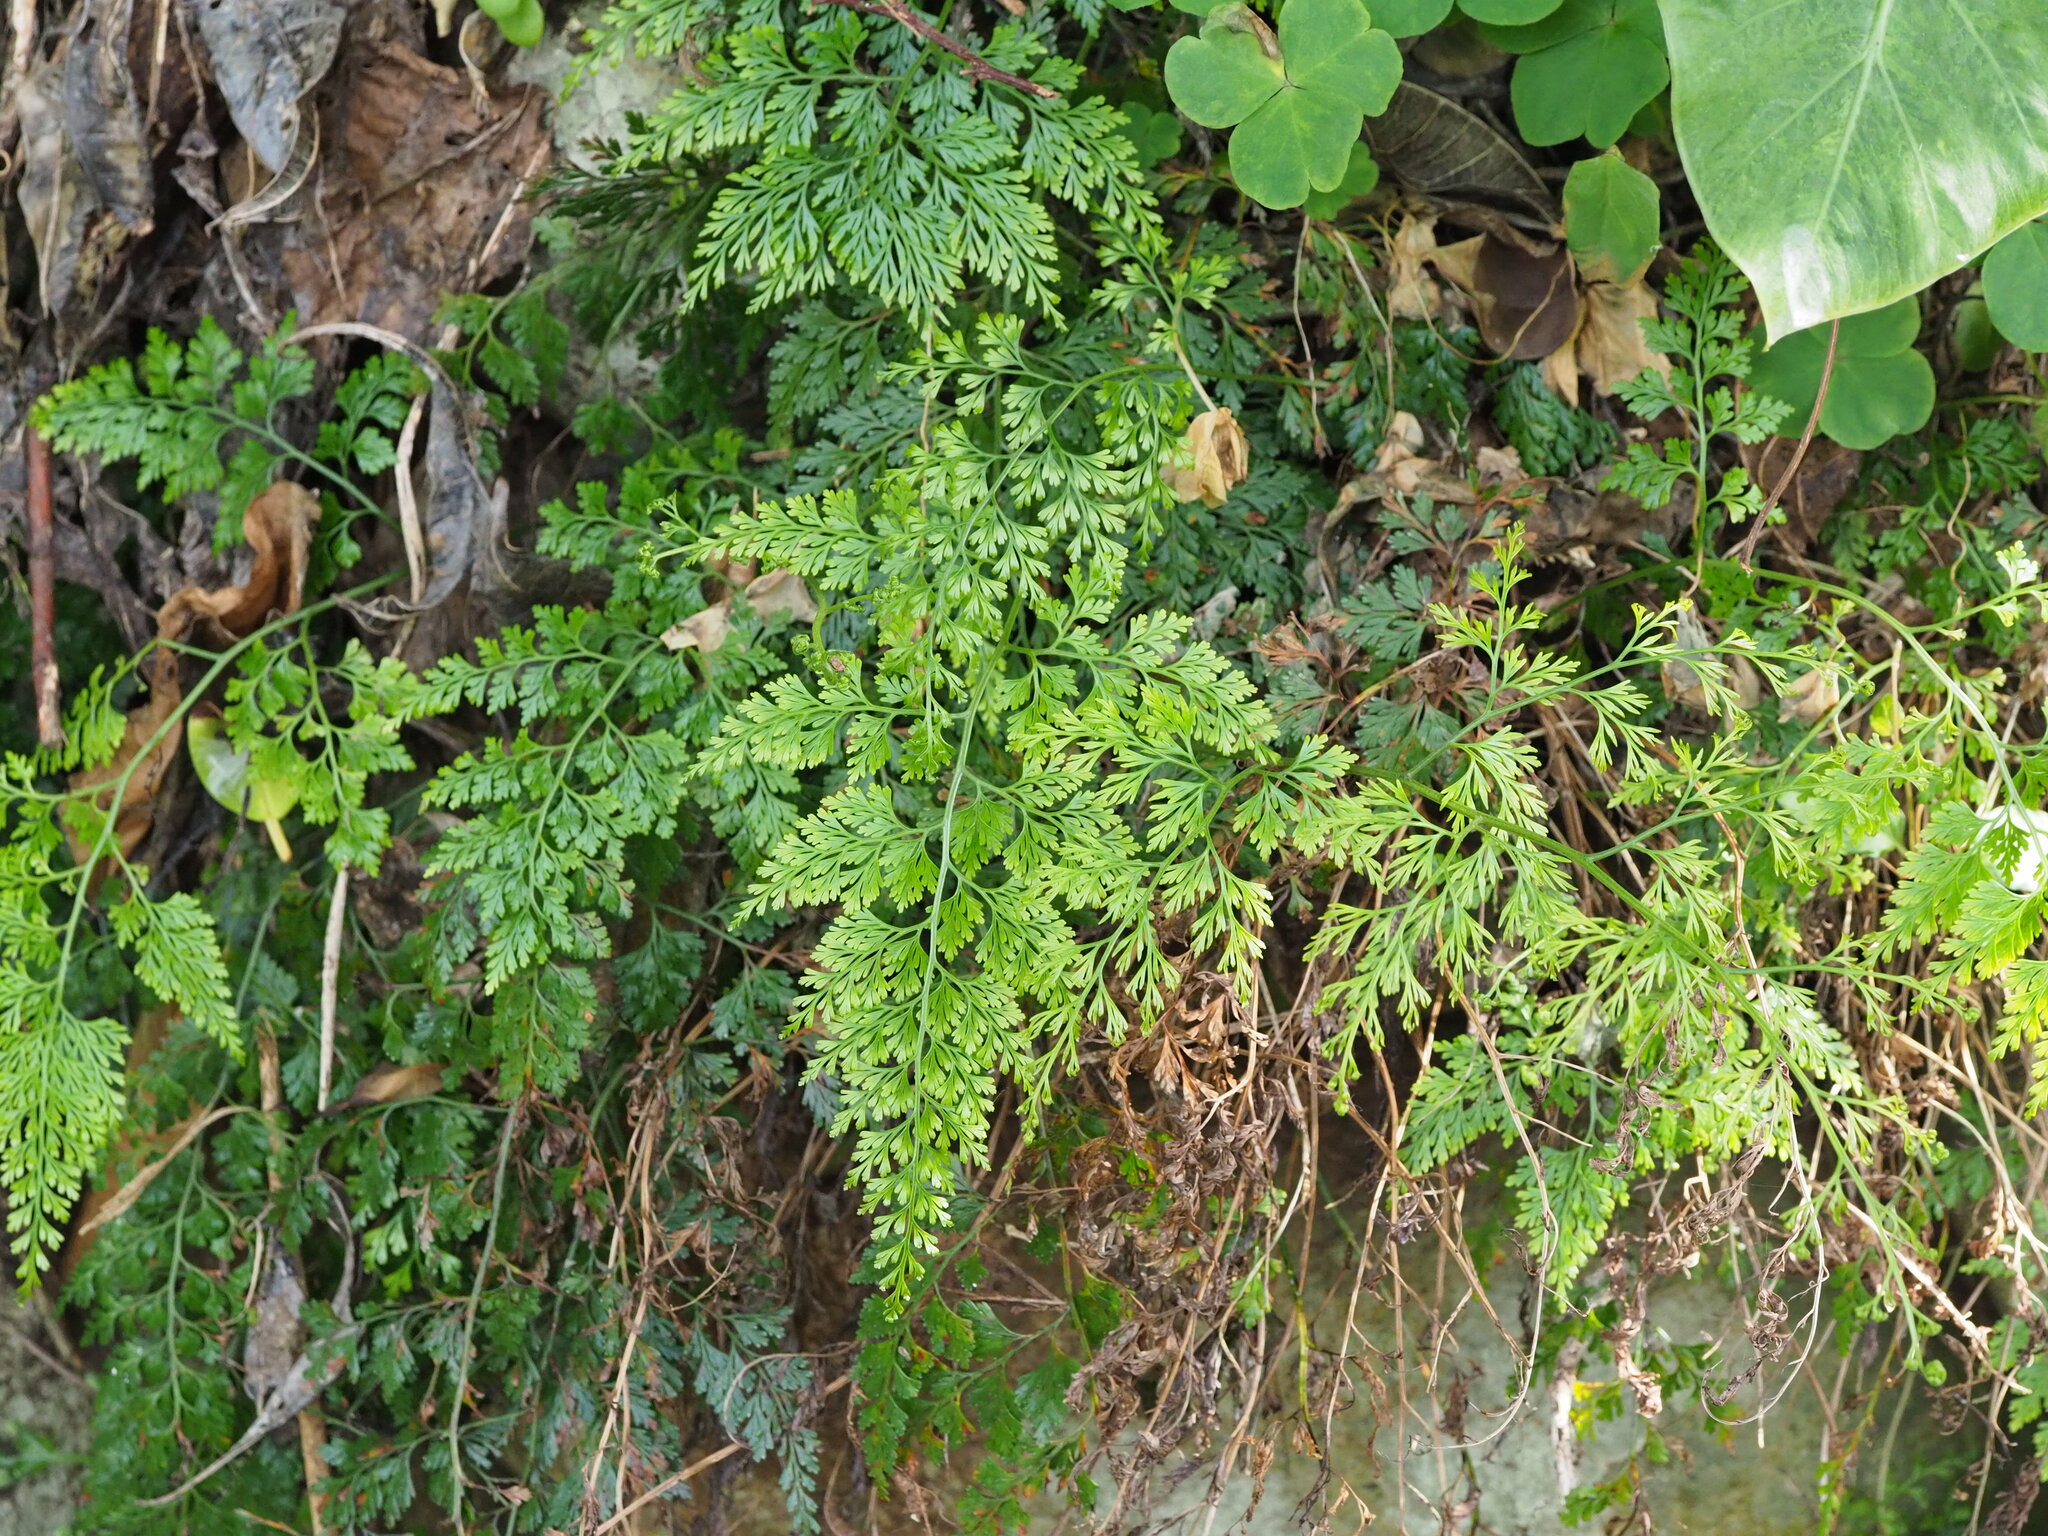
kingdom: Plantae
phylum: Tracheophyta
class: Polypodiopsida
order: Polypodiales
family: Pteridaceae
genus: Onychium
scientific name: Onychium japonicum
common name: Carrot fern
